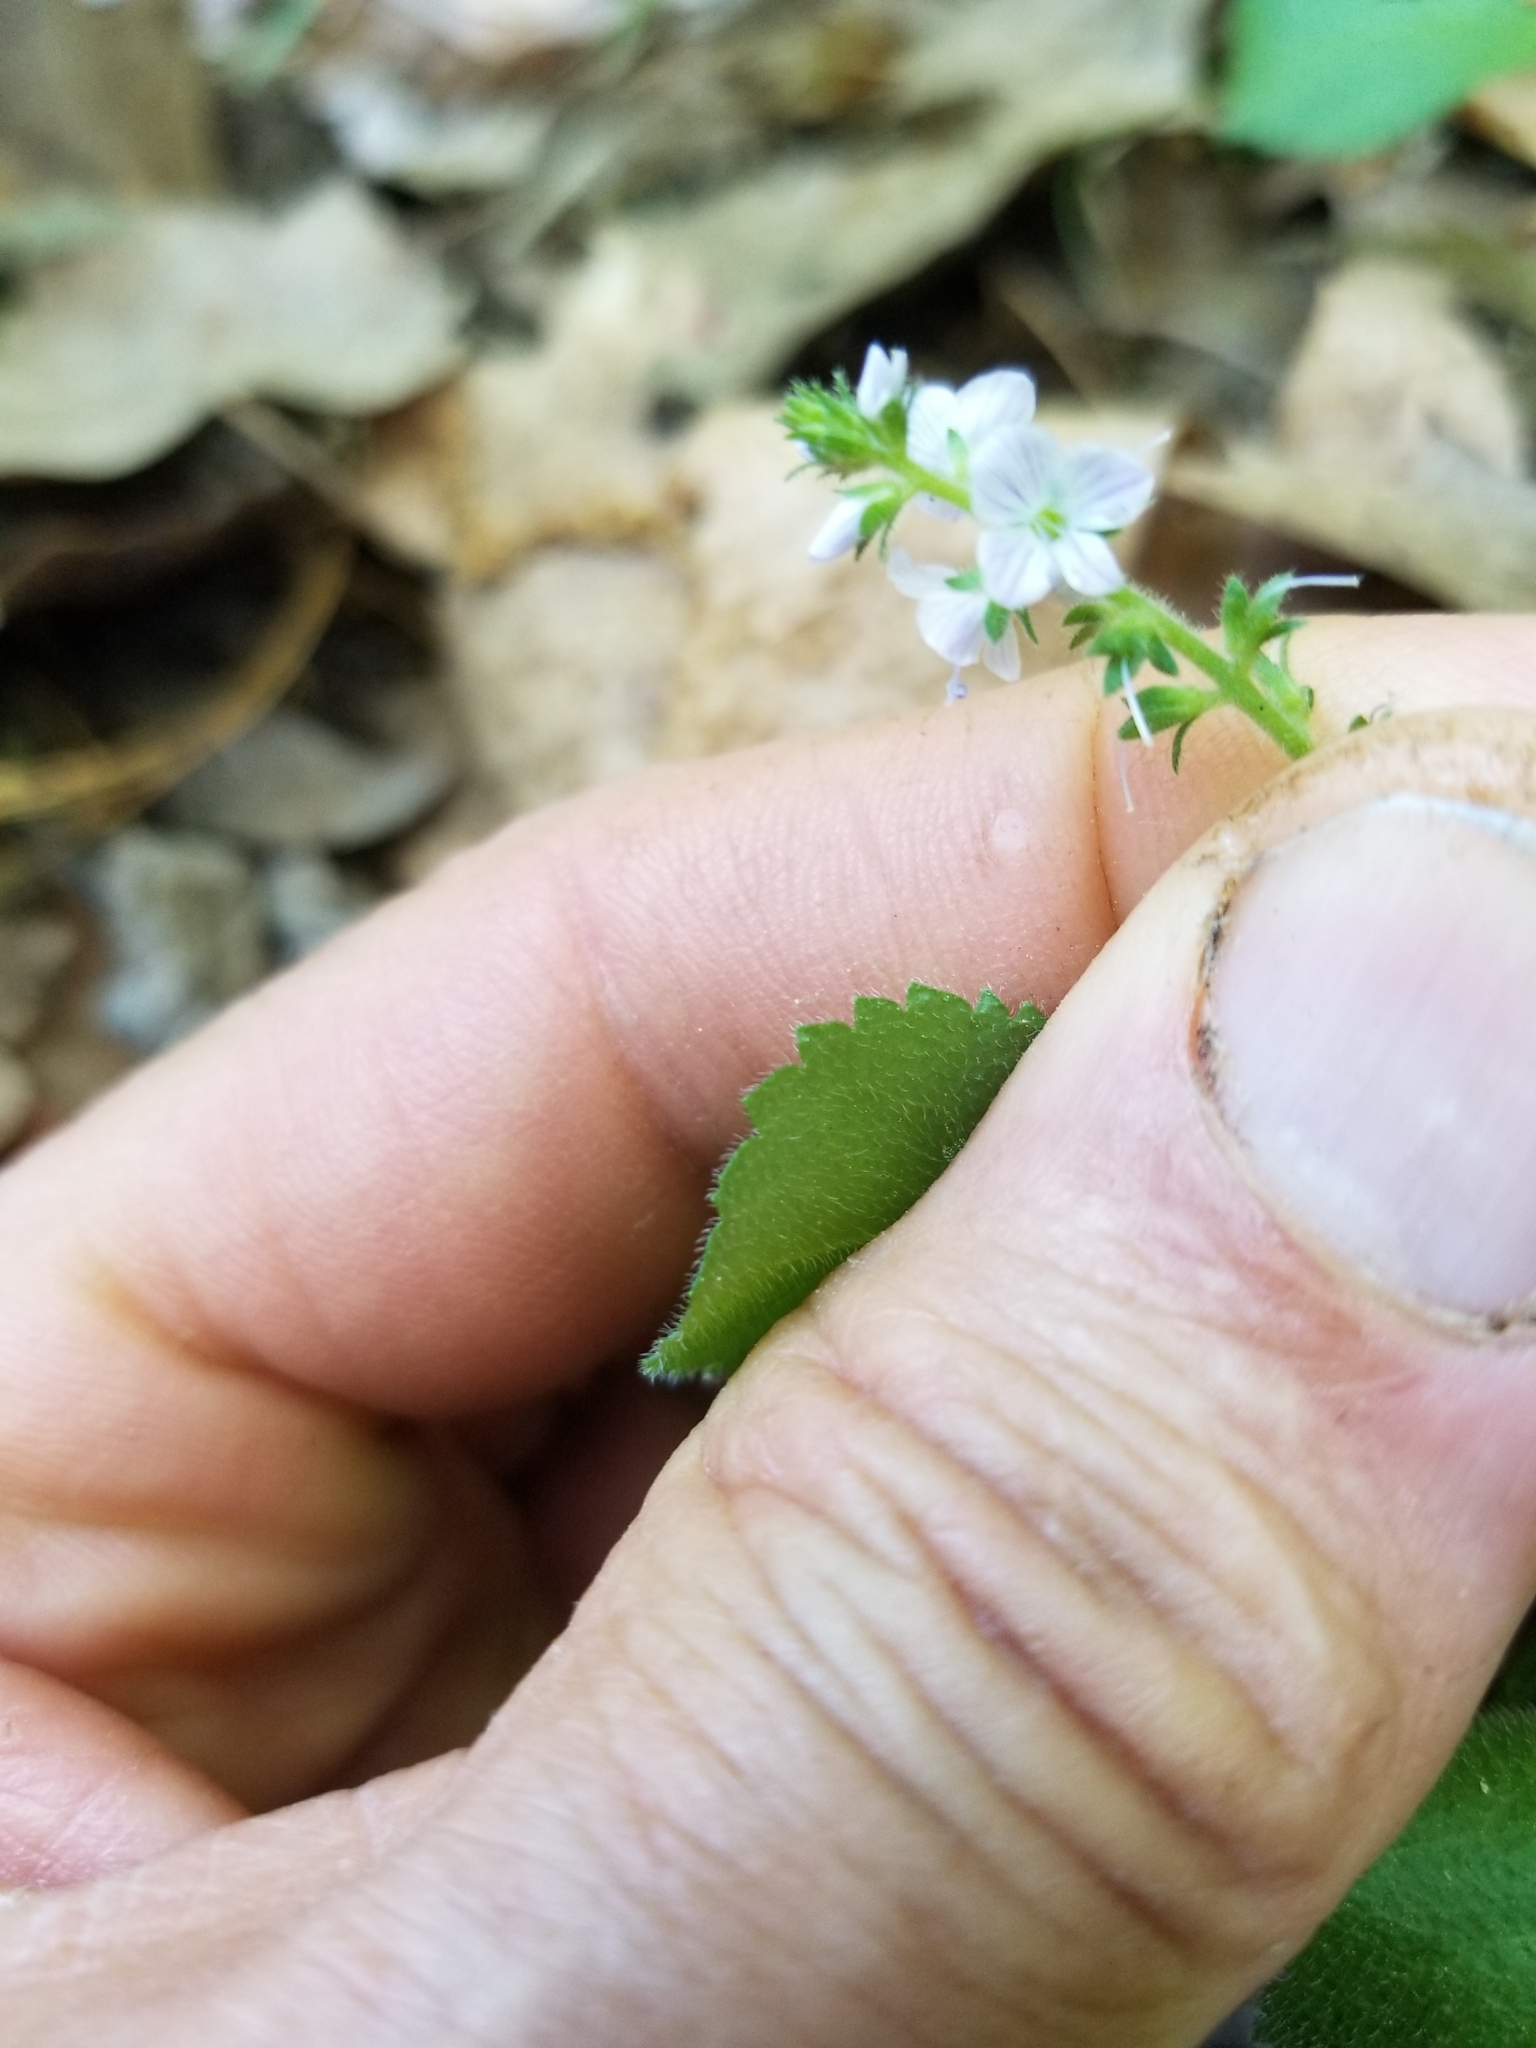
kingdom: Plantae
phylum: Tracheophyta
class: Magnoliopsida
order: Lamiales
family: Plantaginaceae
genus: Veronica
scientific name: Veronica officinalis
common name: Common speedwell
